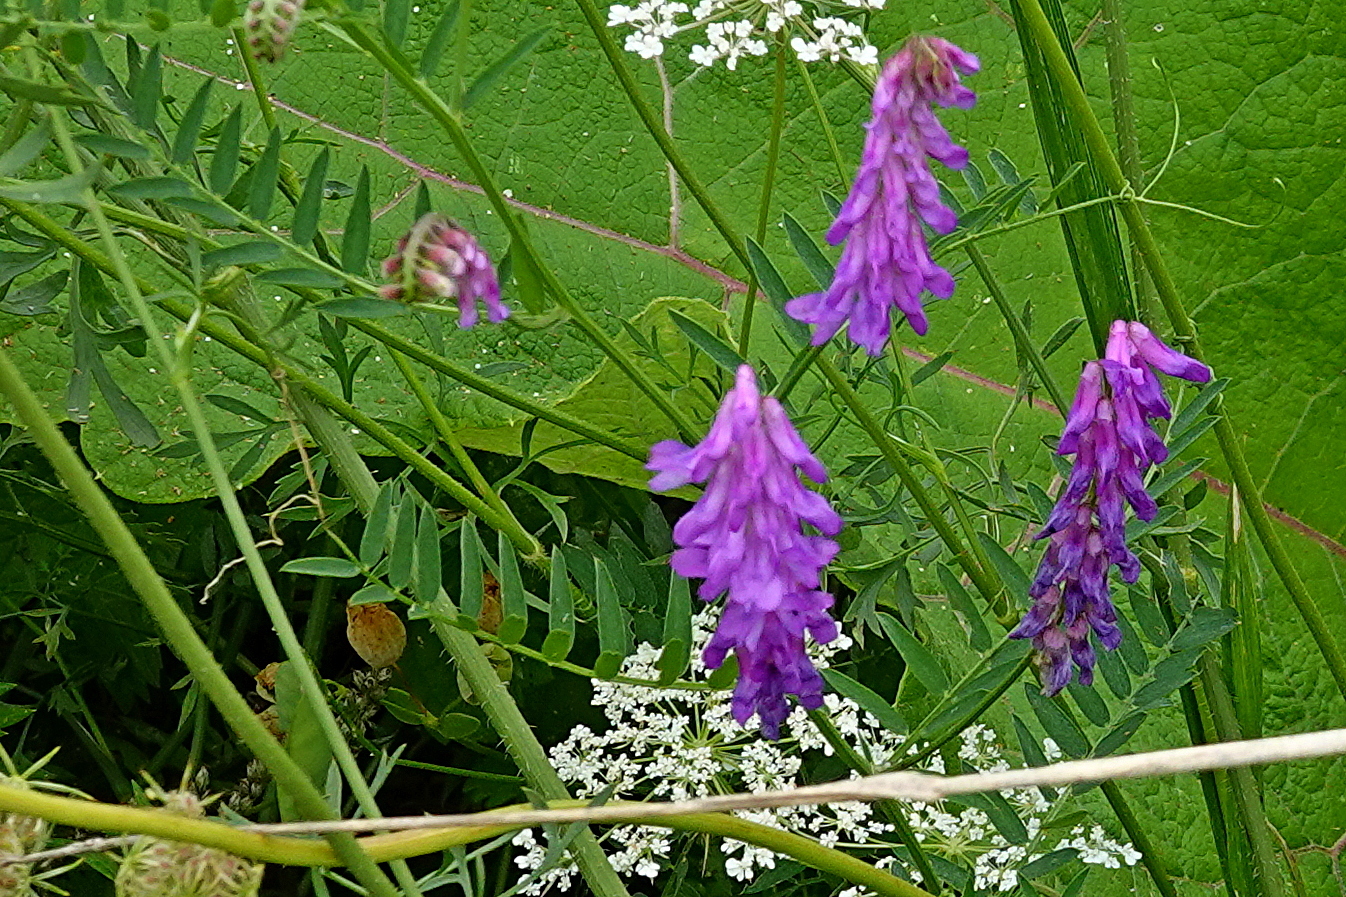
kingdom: Plantae
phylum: Tracheophyta
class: Magnoliopsida
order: Fabales
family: Fabaceae
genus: Vicia
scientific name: Vicia cracca
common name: Bird vetch
